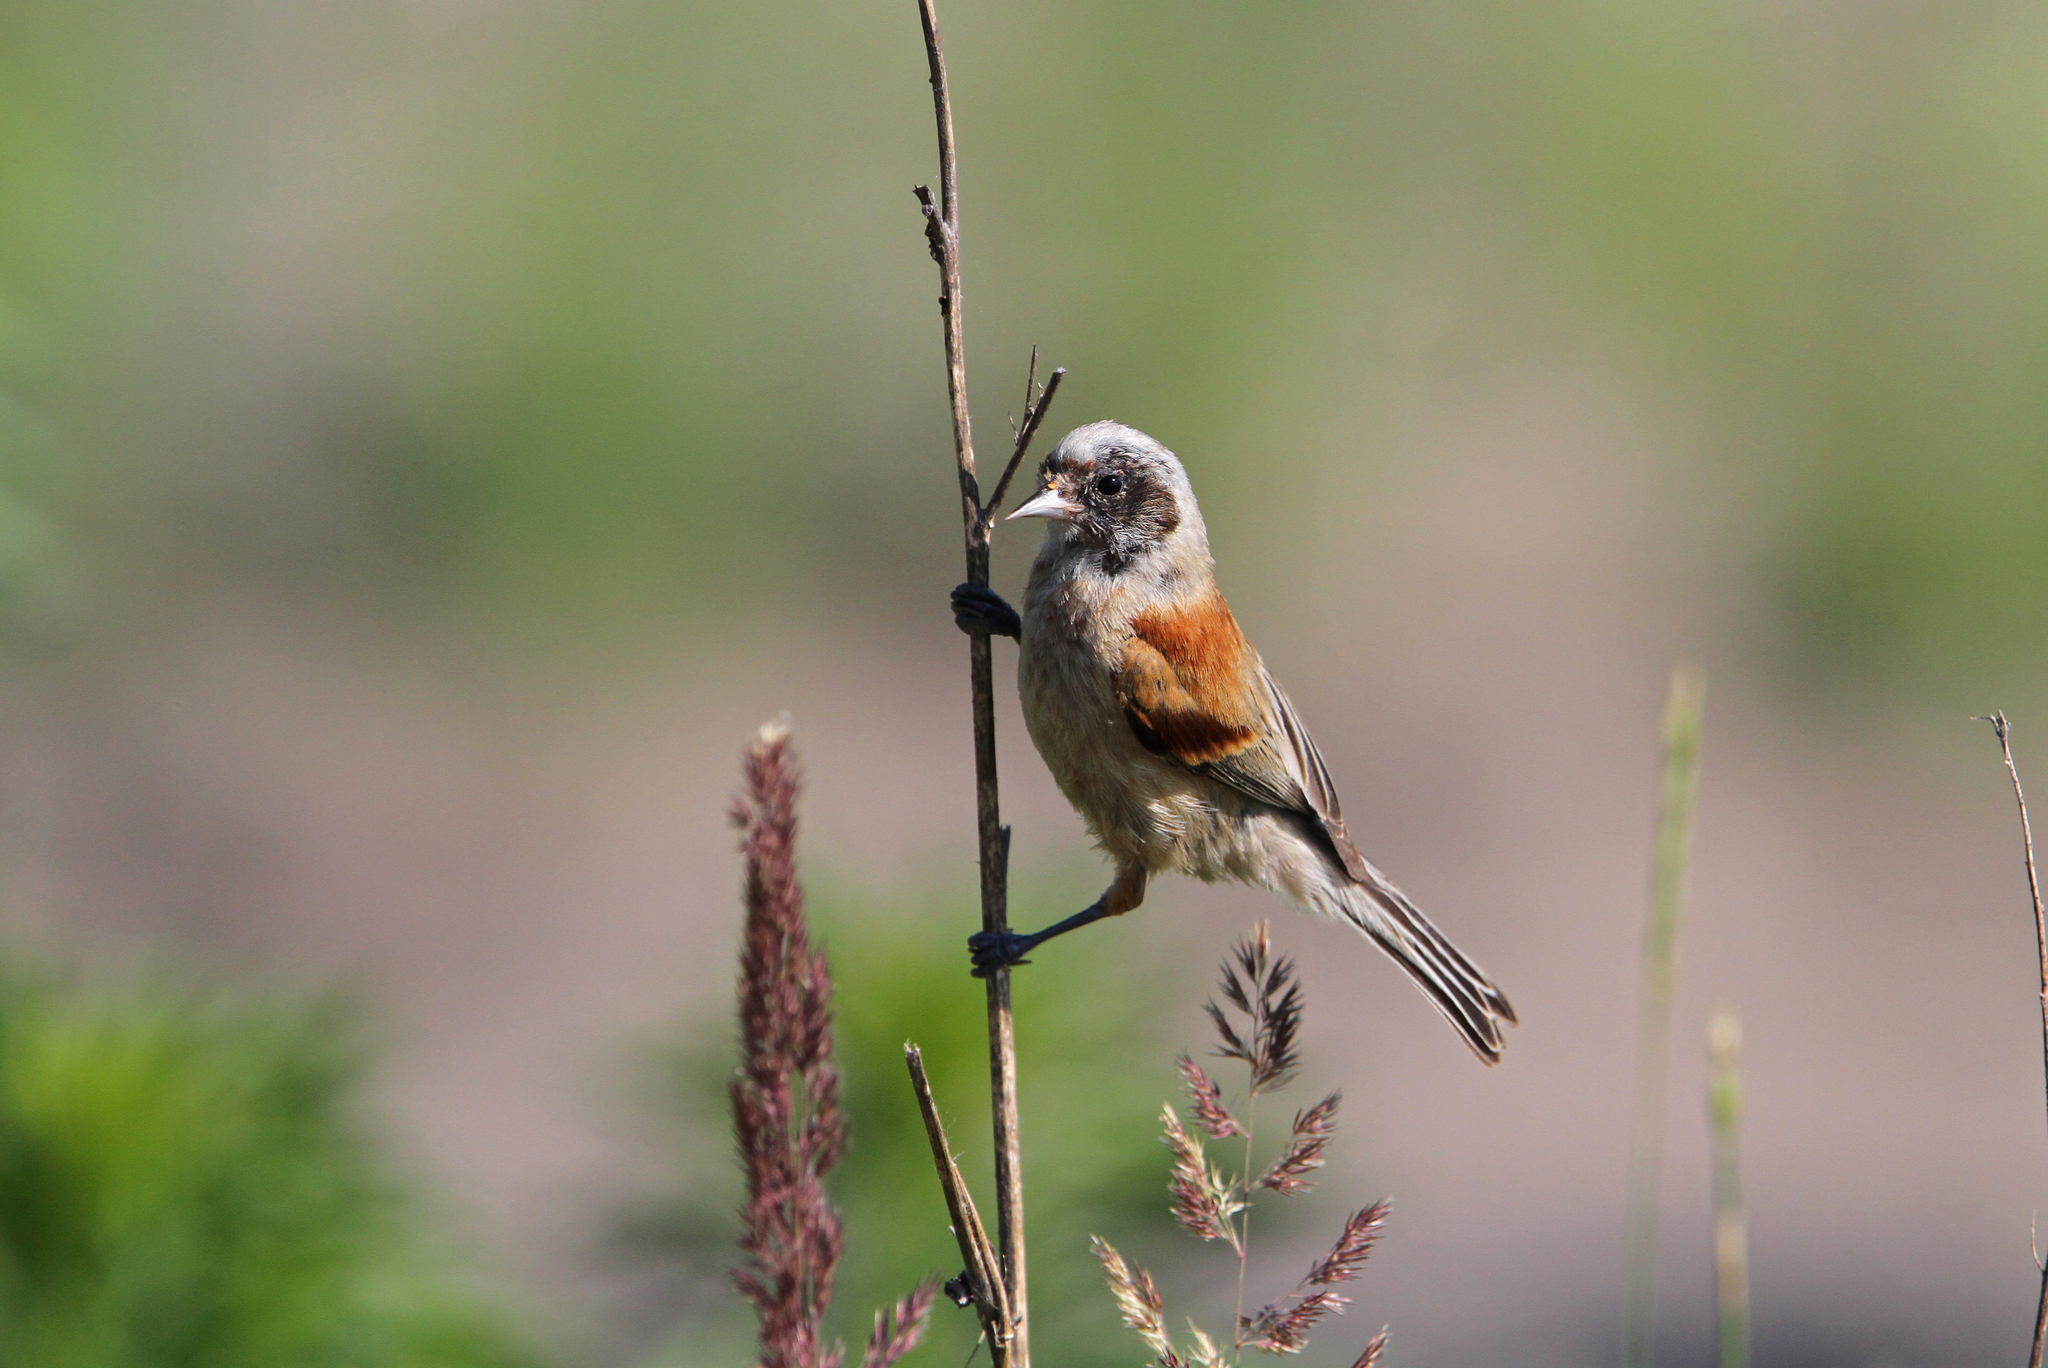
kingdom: Animalia
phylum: Chordata
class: Aves
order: Passeriformes
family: Remizidae
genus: Remiz
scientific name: Remiz pendulinus
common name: Eurasian penduline tit
